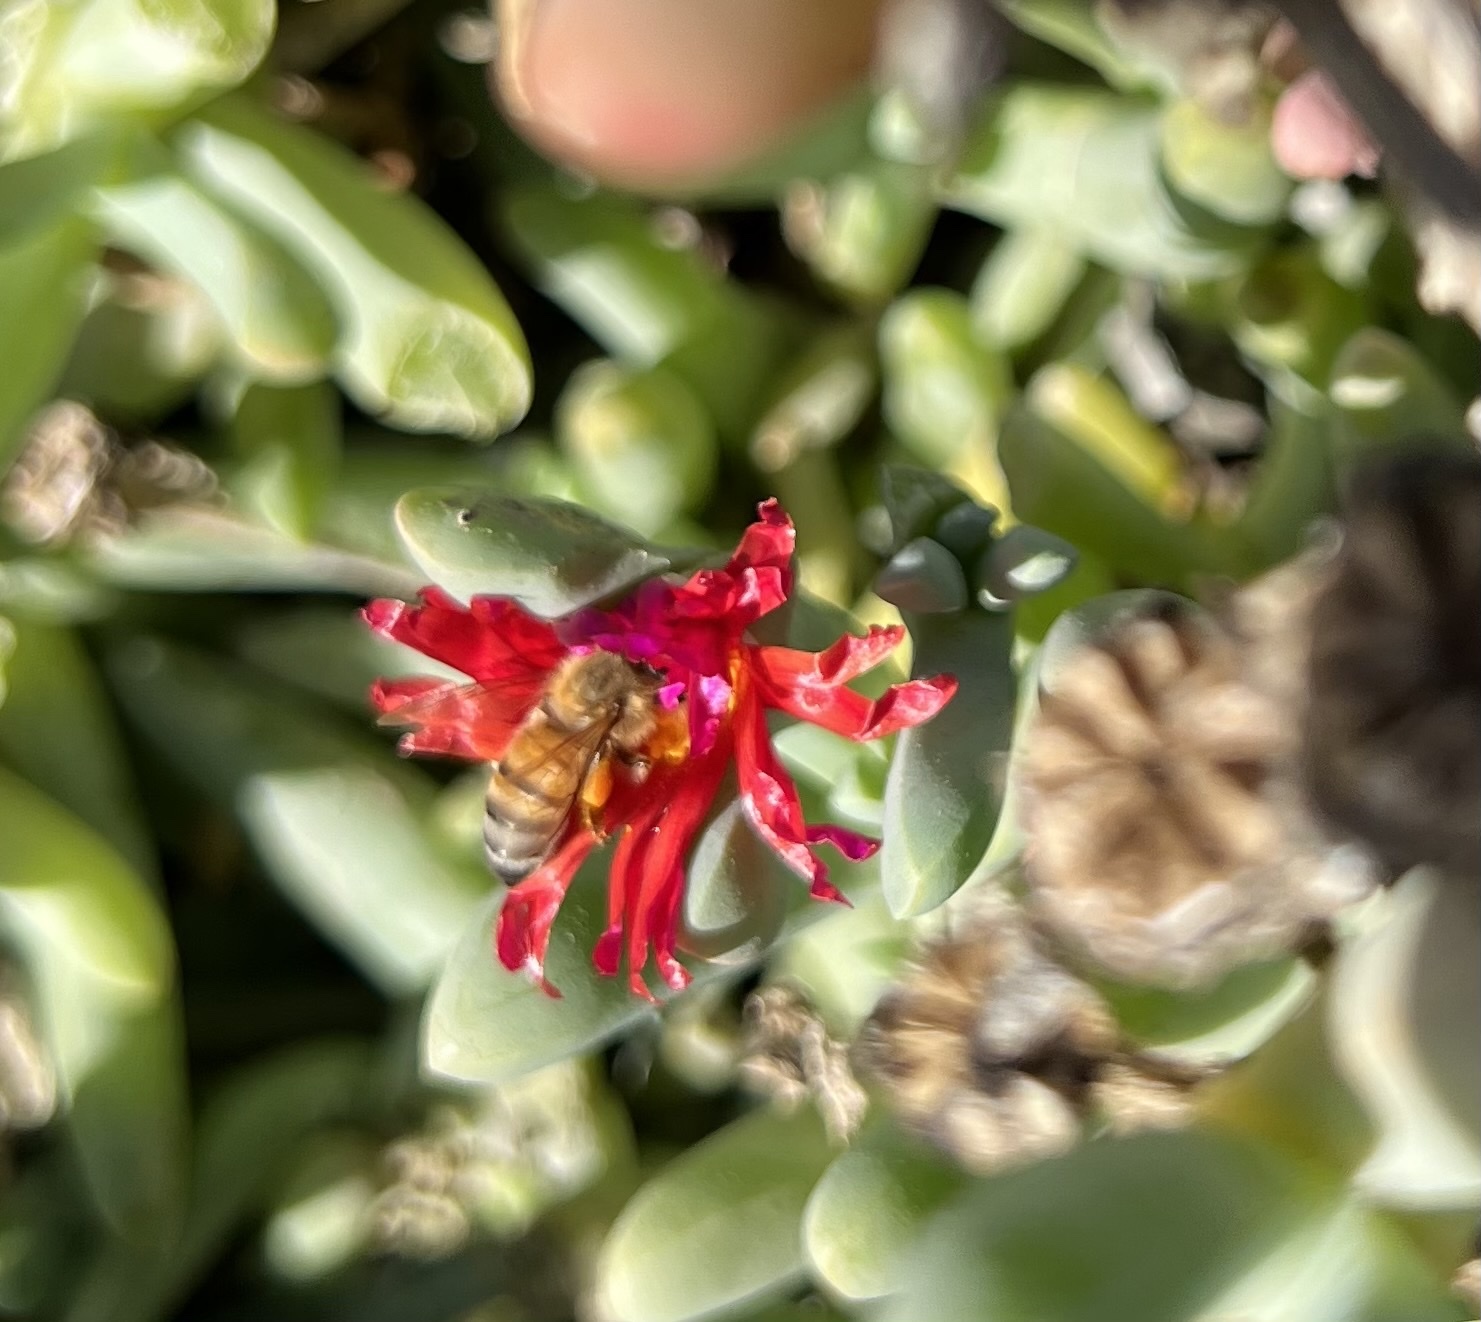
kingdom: Animalia
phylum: Arthropoda
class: Insecta
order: Hymenoptera
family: Apidae
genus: Apis
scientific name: Apis mellifera
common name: Honey bee
